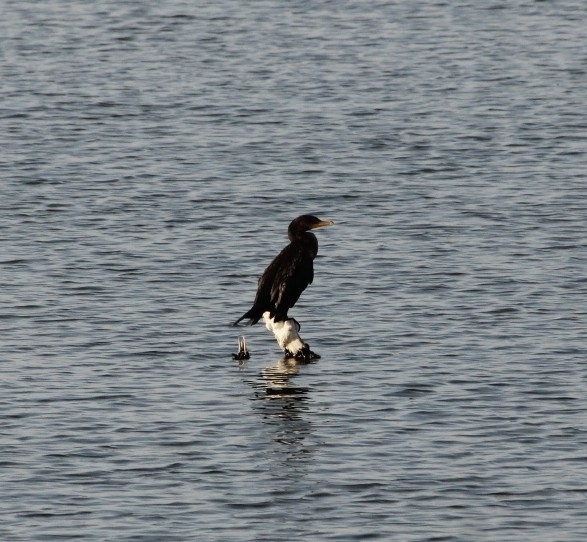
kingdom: Animalia
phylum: Chordata
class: Aves
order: Suliformes
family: Phalacrocoracidae
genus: Phalacrocorax
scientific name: Phalacrocorax auritus
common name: Double-crested cormorant
